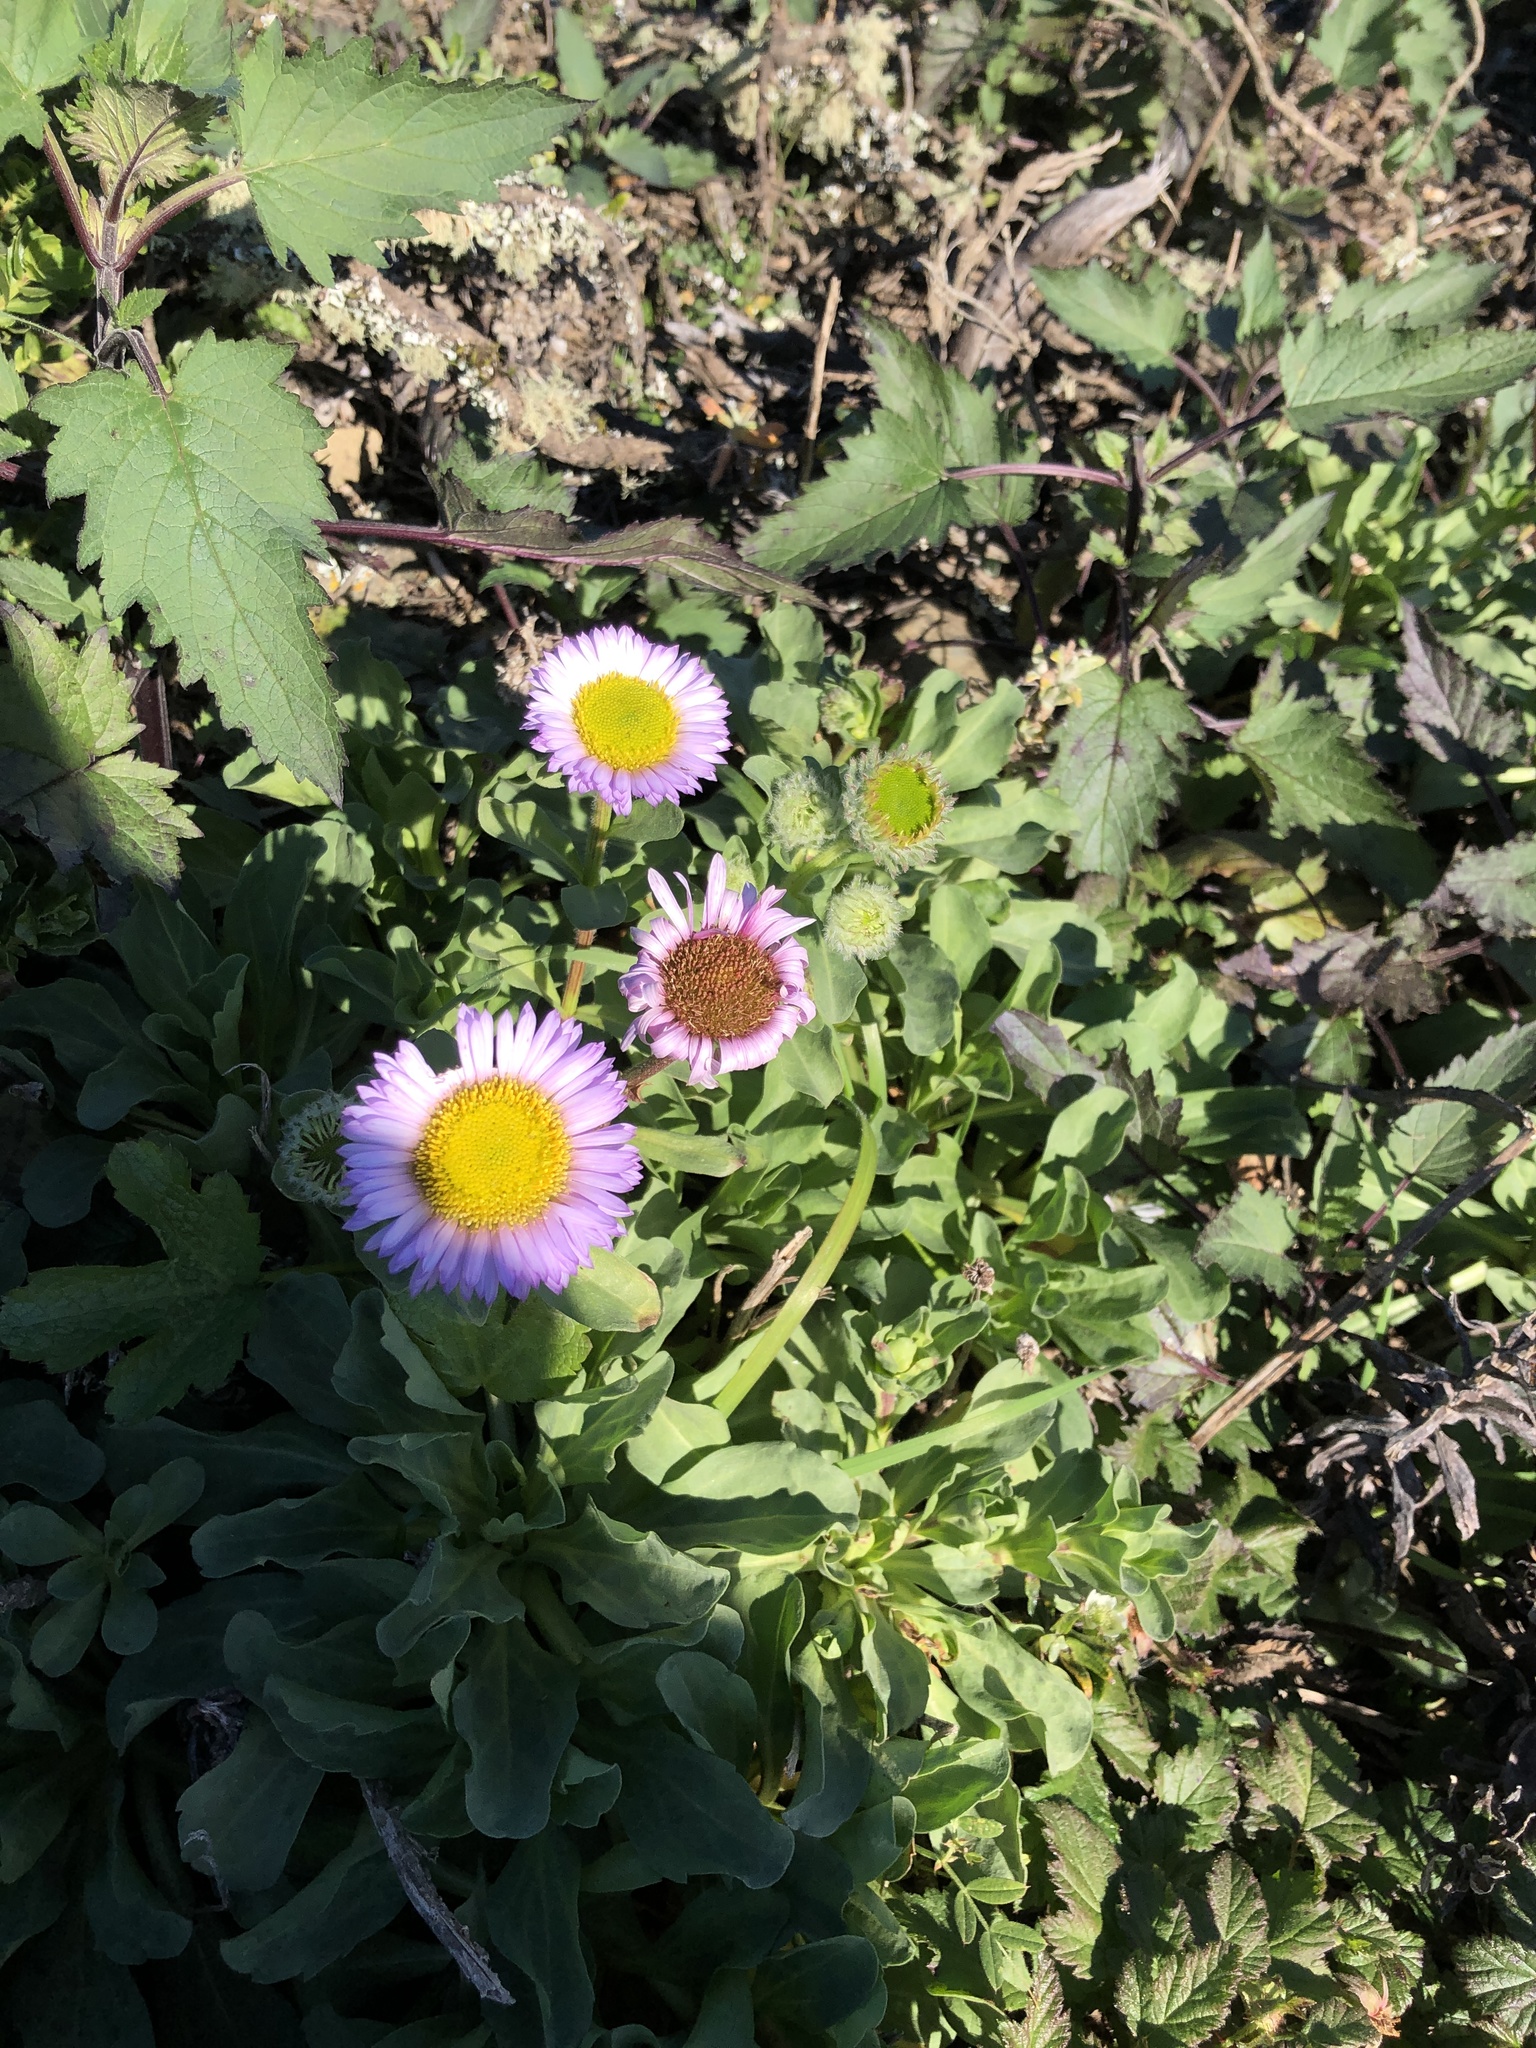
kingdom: Plantae
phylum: Tracheophyta
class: Magnoliopsida
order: Asterales
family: Asteraceae
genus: Erigeron
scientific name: Erigeron glaucus
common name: Seaside daisy
